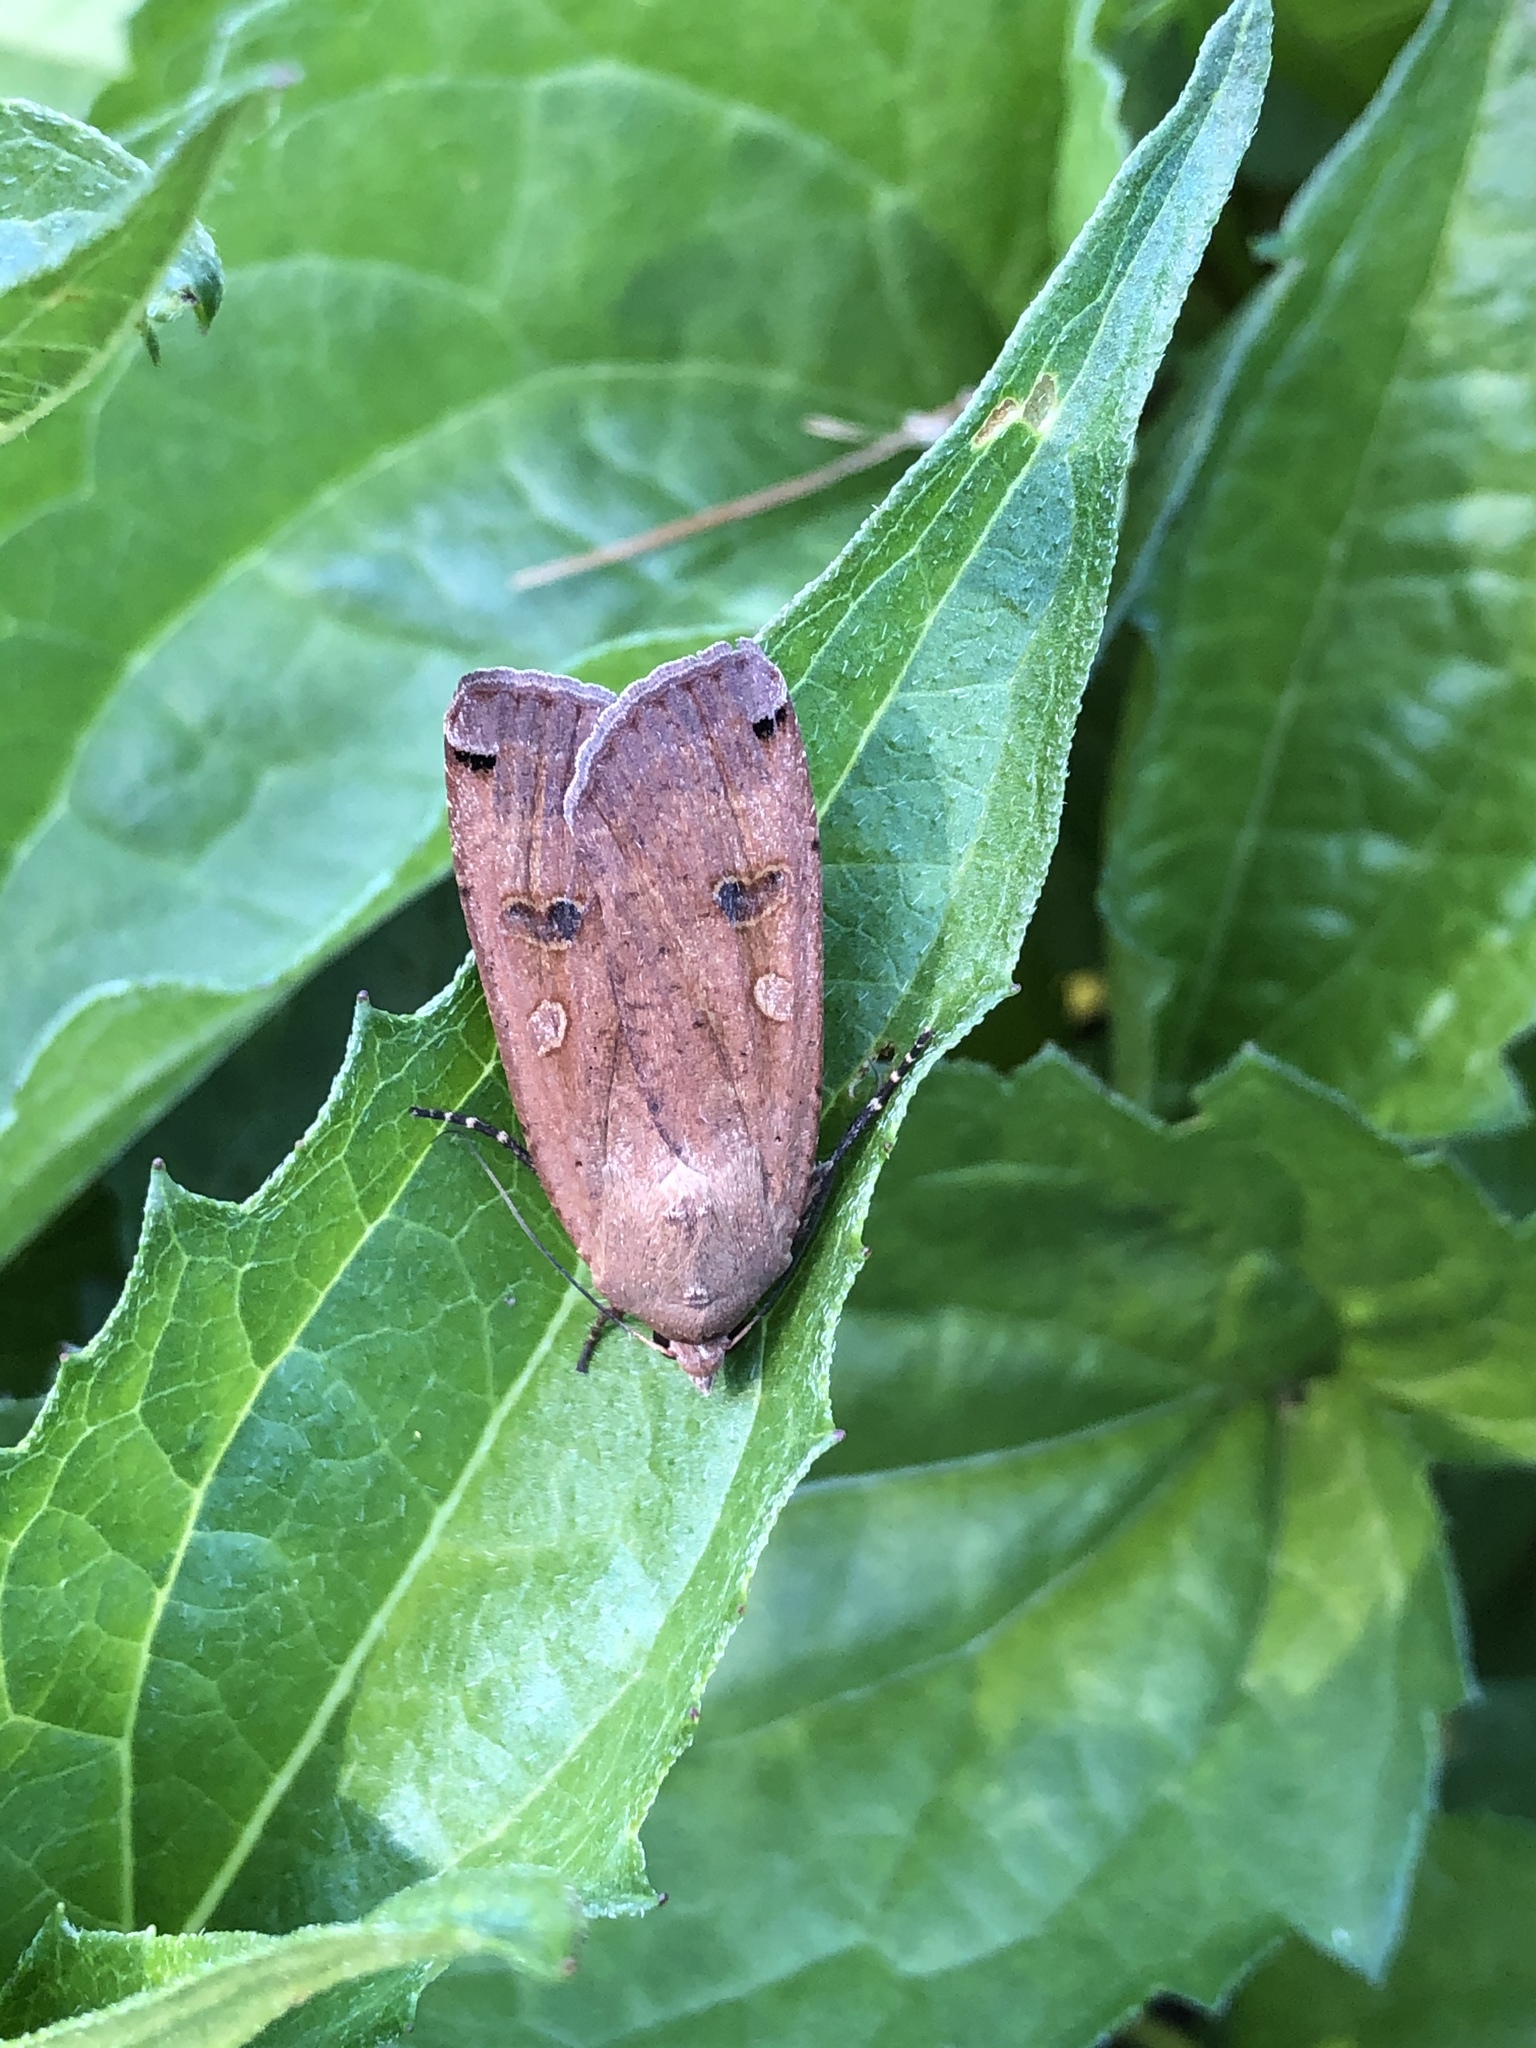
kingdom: Animalia
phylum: Arthropoda
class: Insecta
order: Lepidoptera
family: Noctuidae
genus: Noctua
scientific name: Noctua pronuba
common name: Large yellow underwing
